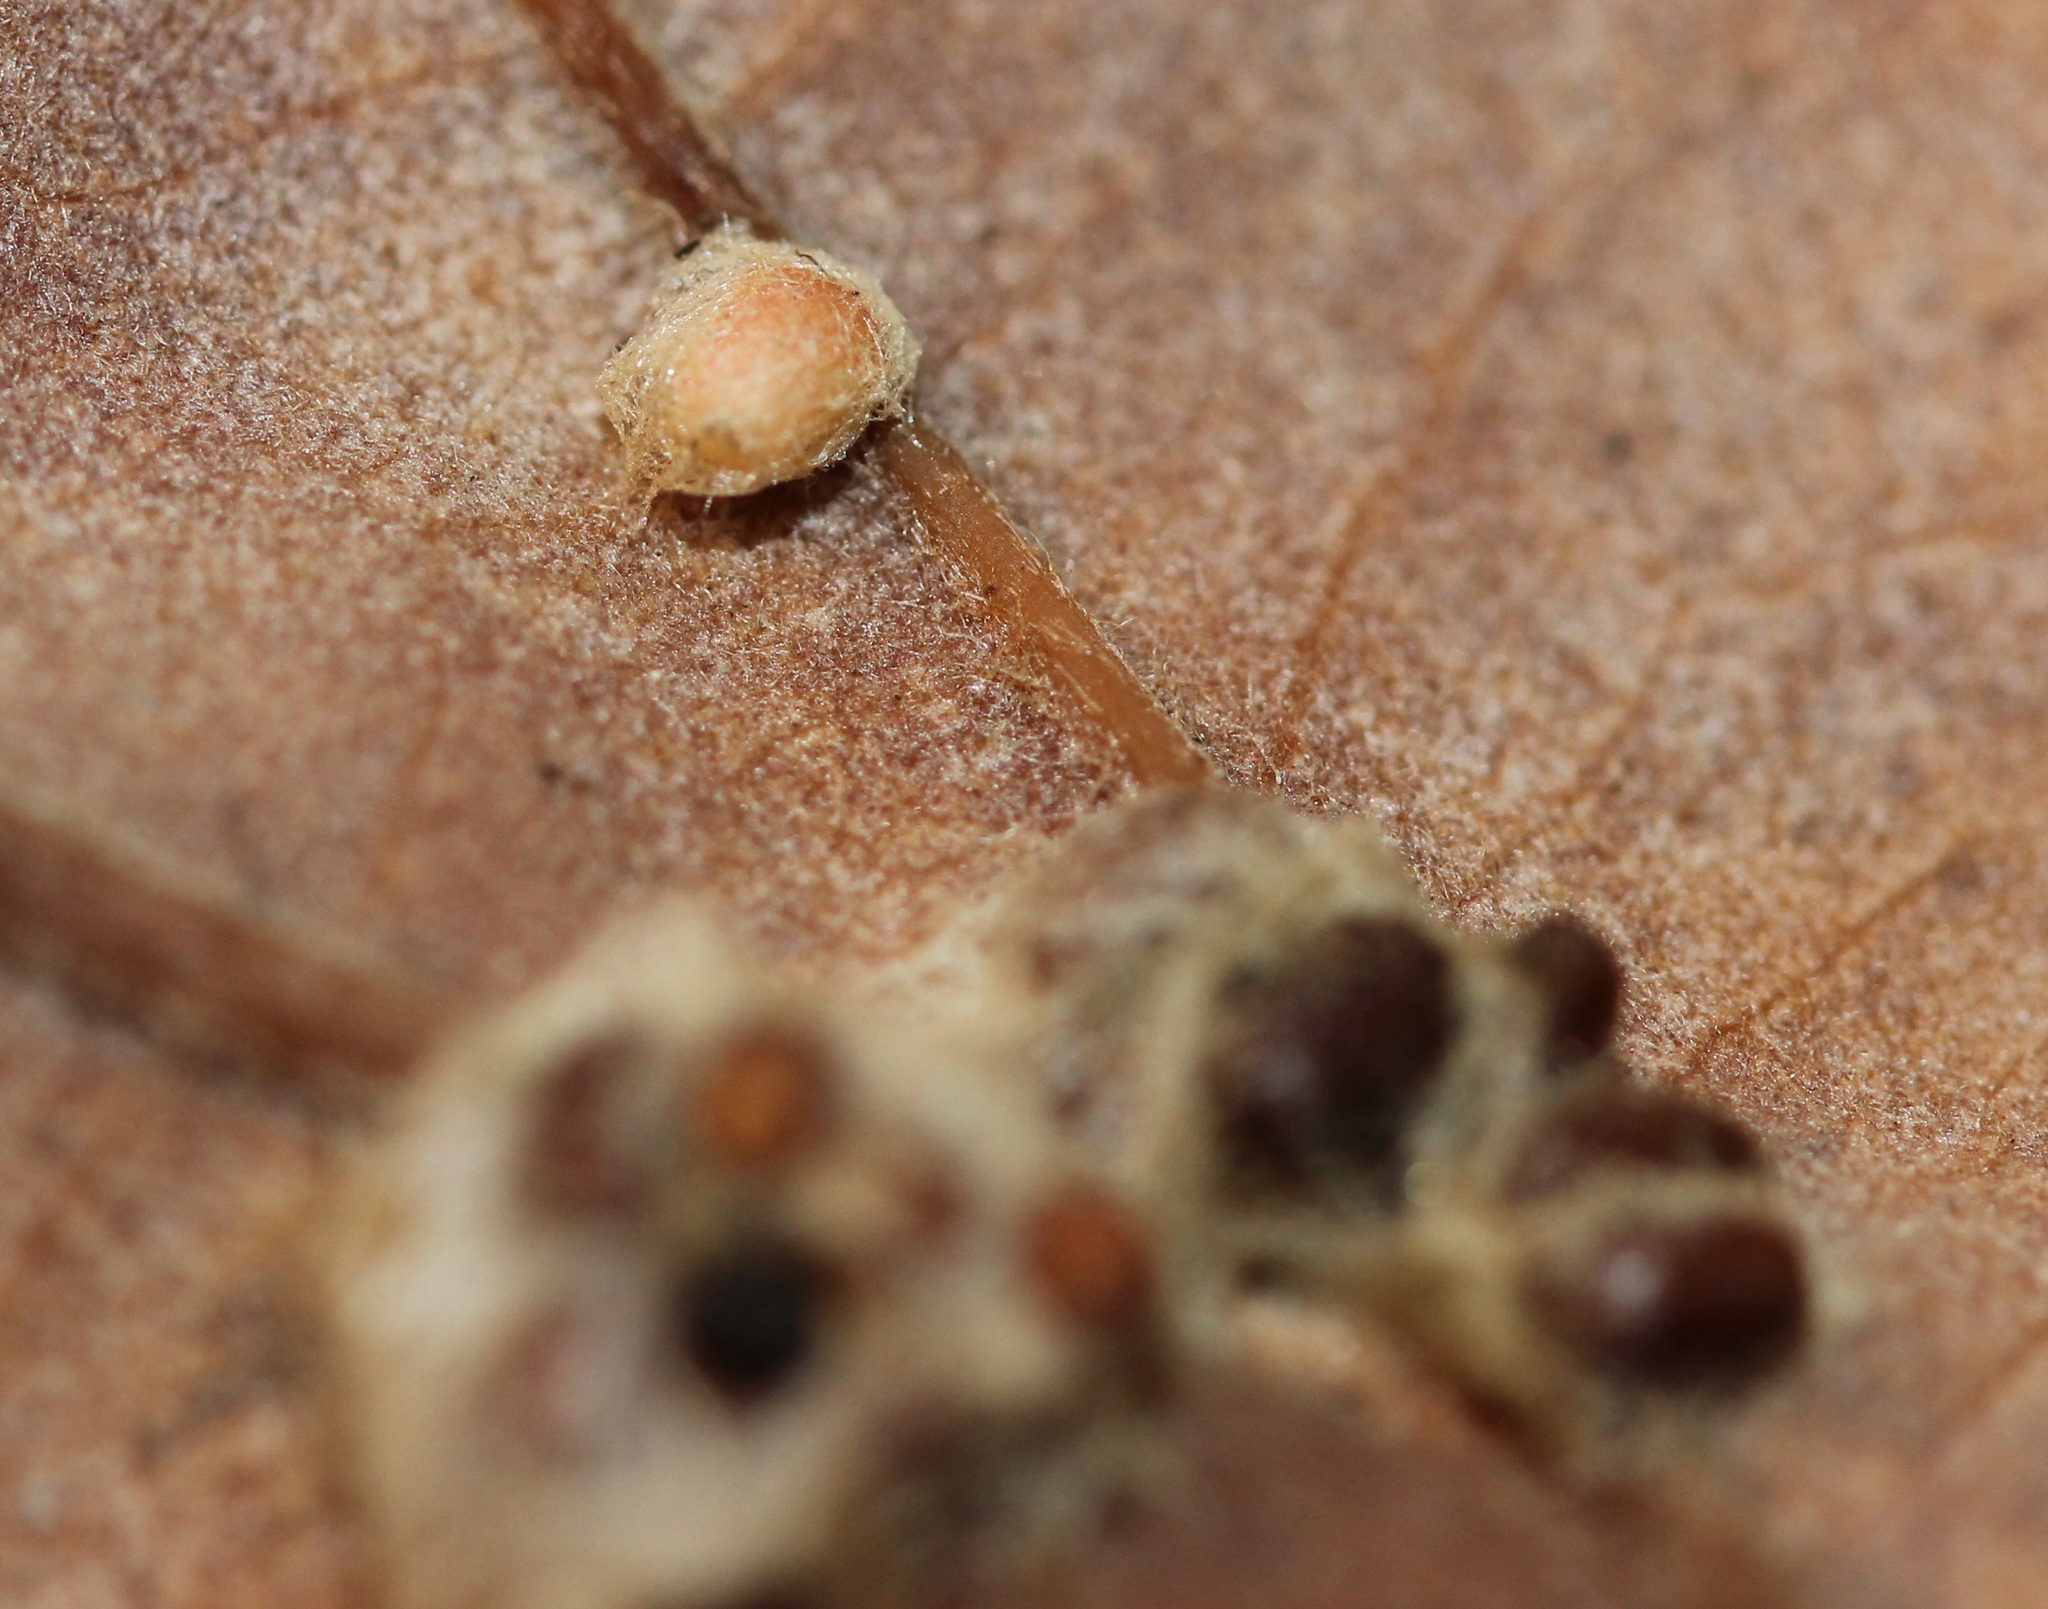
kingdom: Animalia
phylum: Arthropoda
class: Insecta
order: Hymenoptera
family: Cynipidae
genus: Andricus
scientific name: Andricus Druon ignotum
